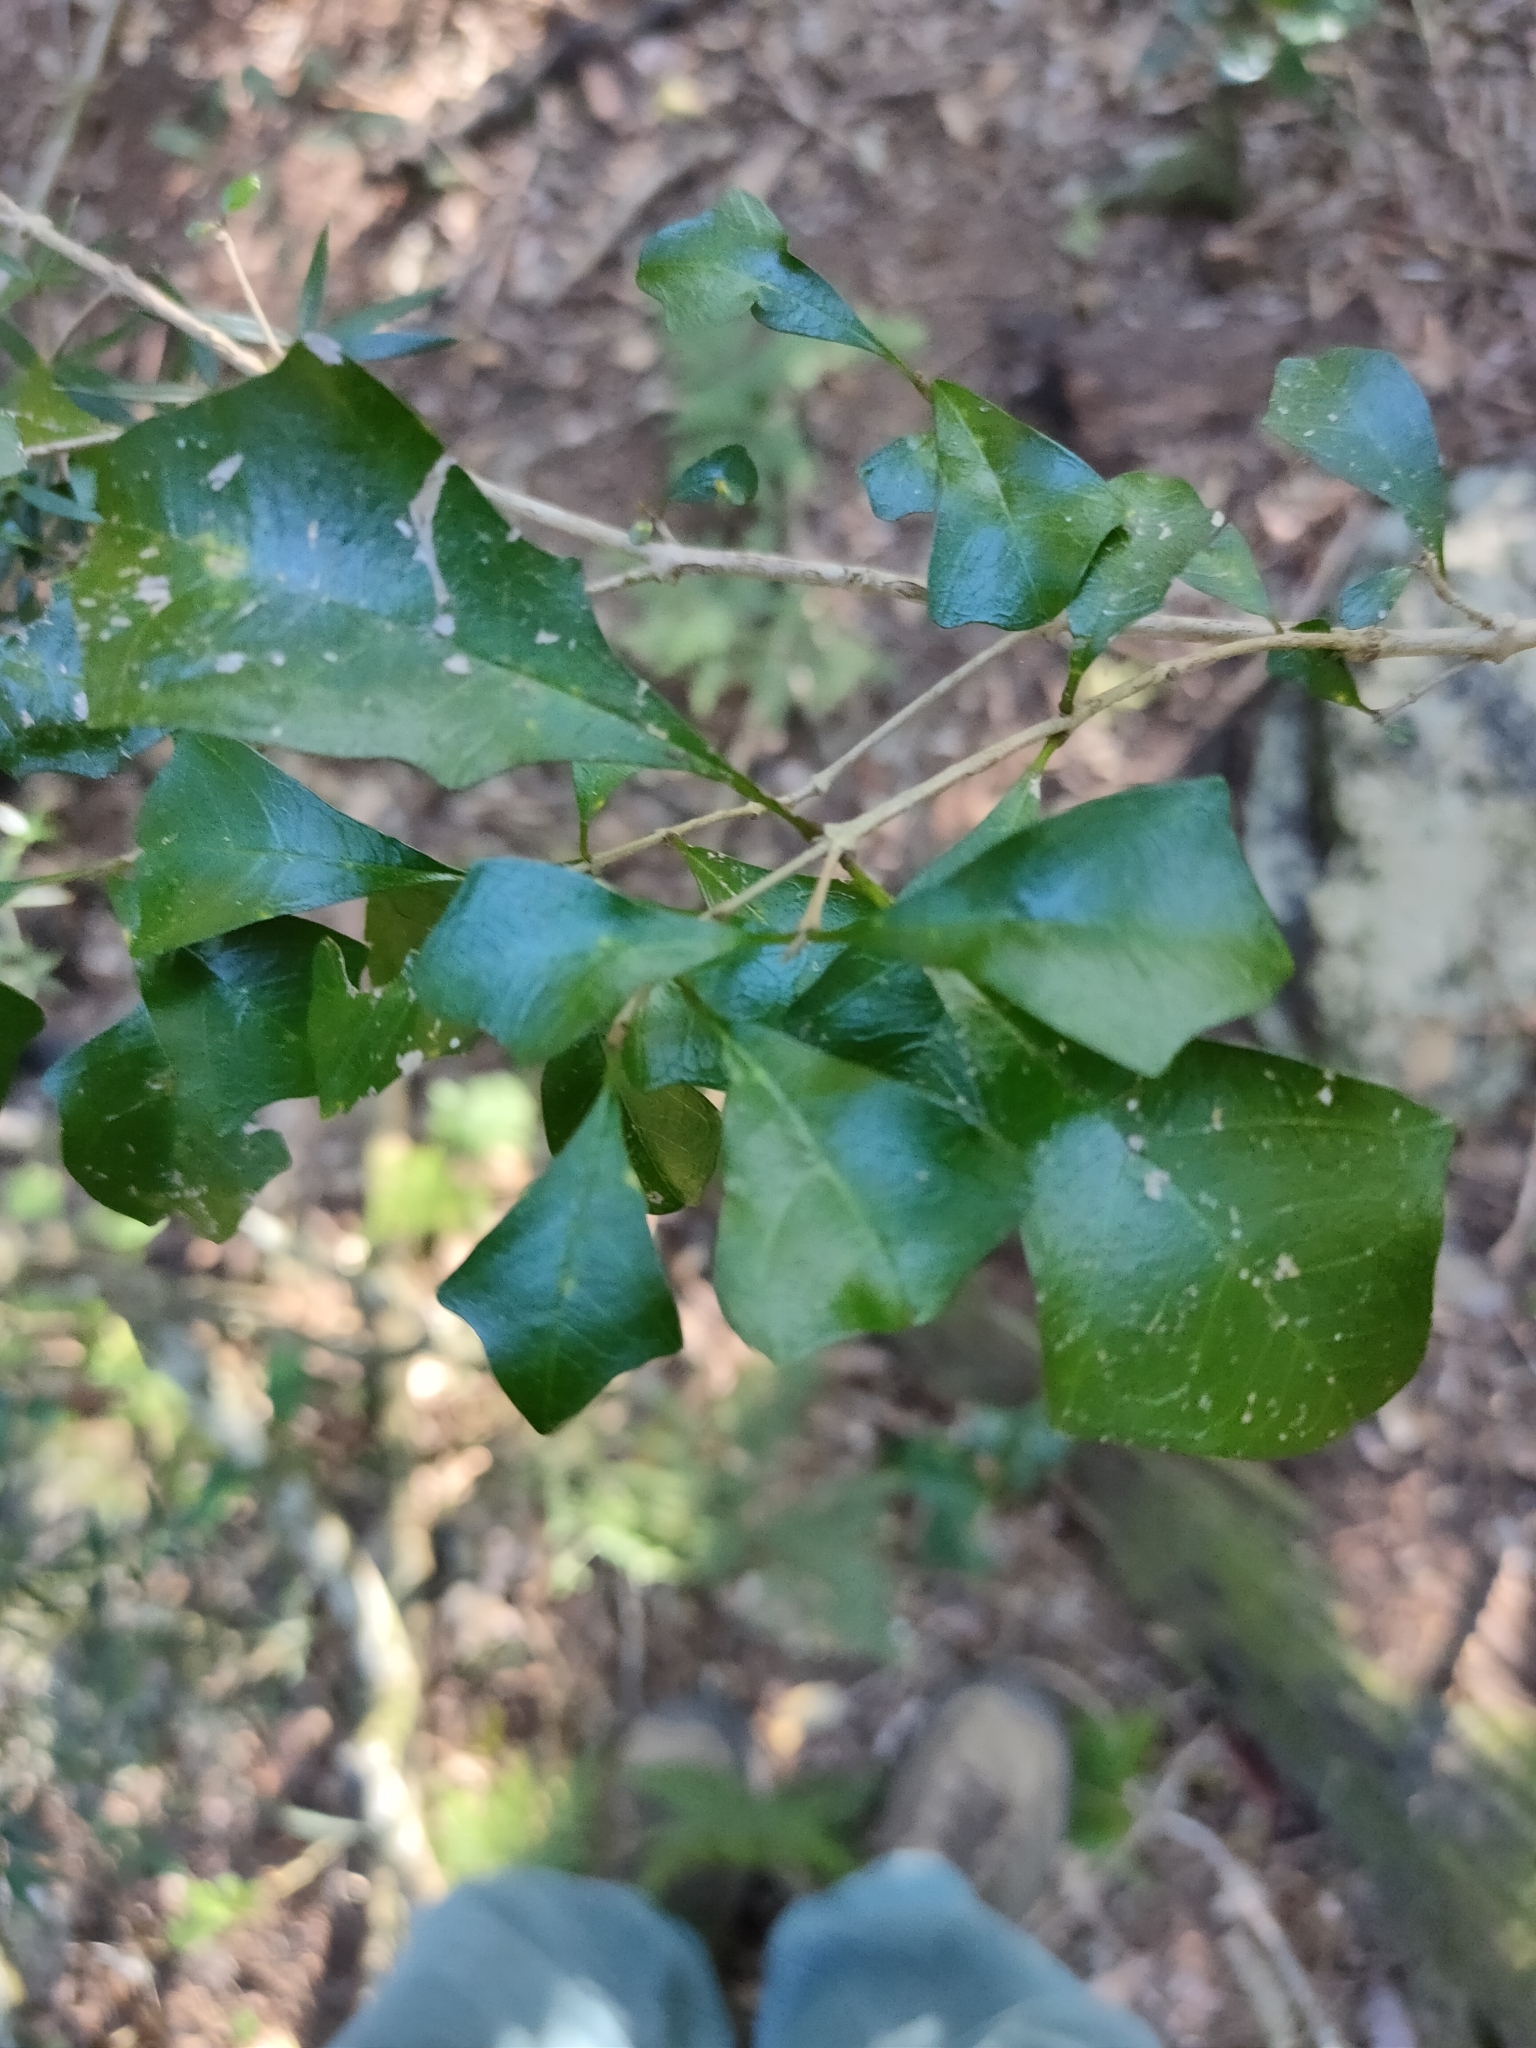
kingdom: Plantae
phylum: Tracheophyta
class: Magnoliopsida
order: Lamiales
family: Lamiaceae
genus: Vitex
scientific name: Vitex lignum-vitae
